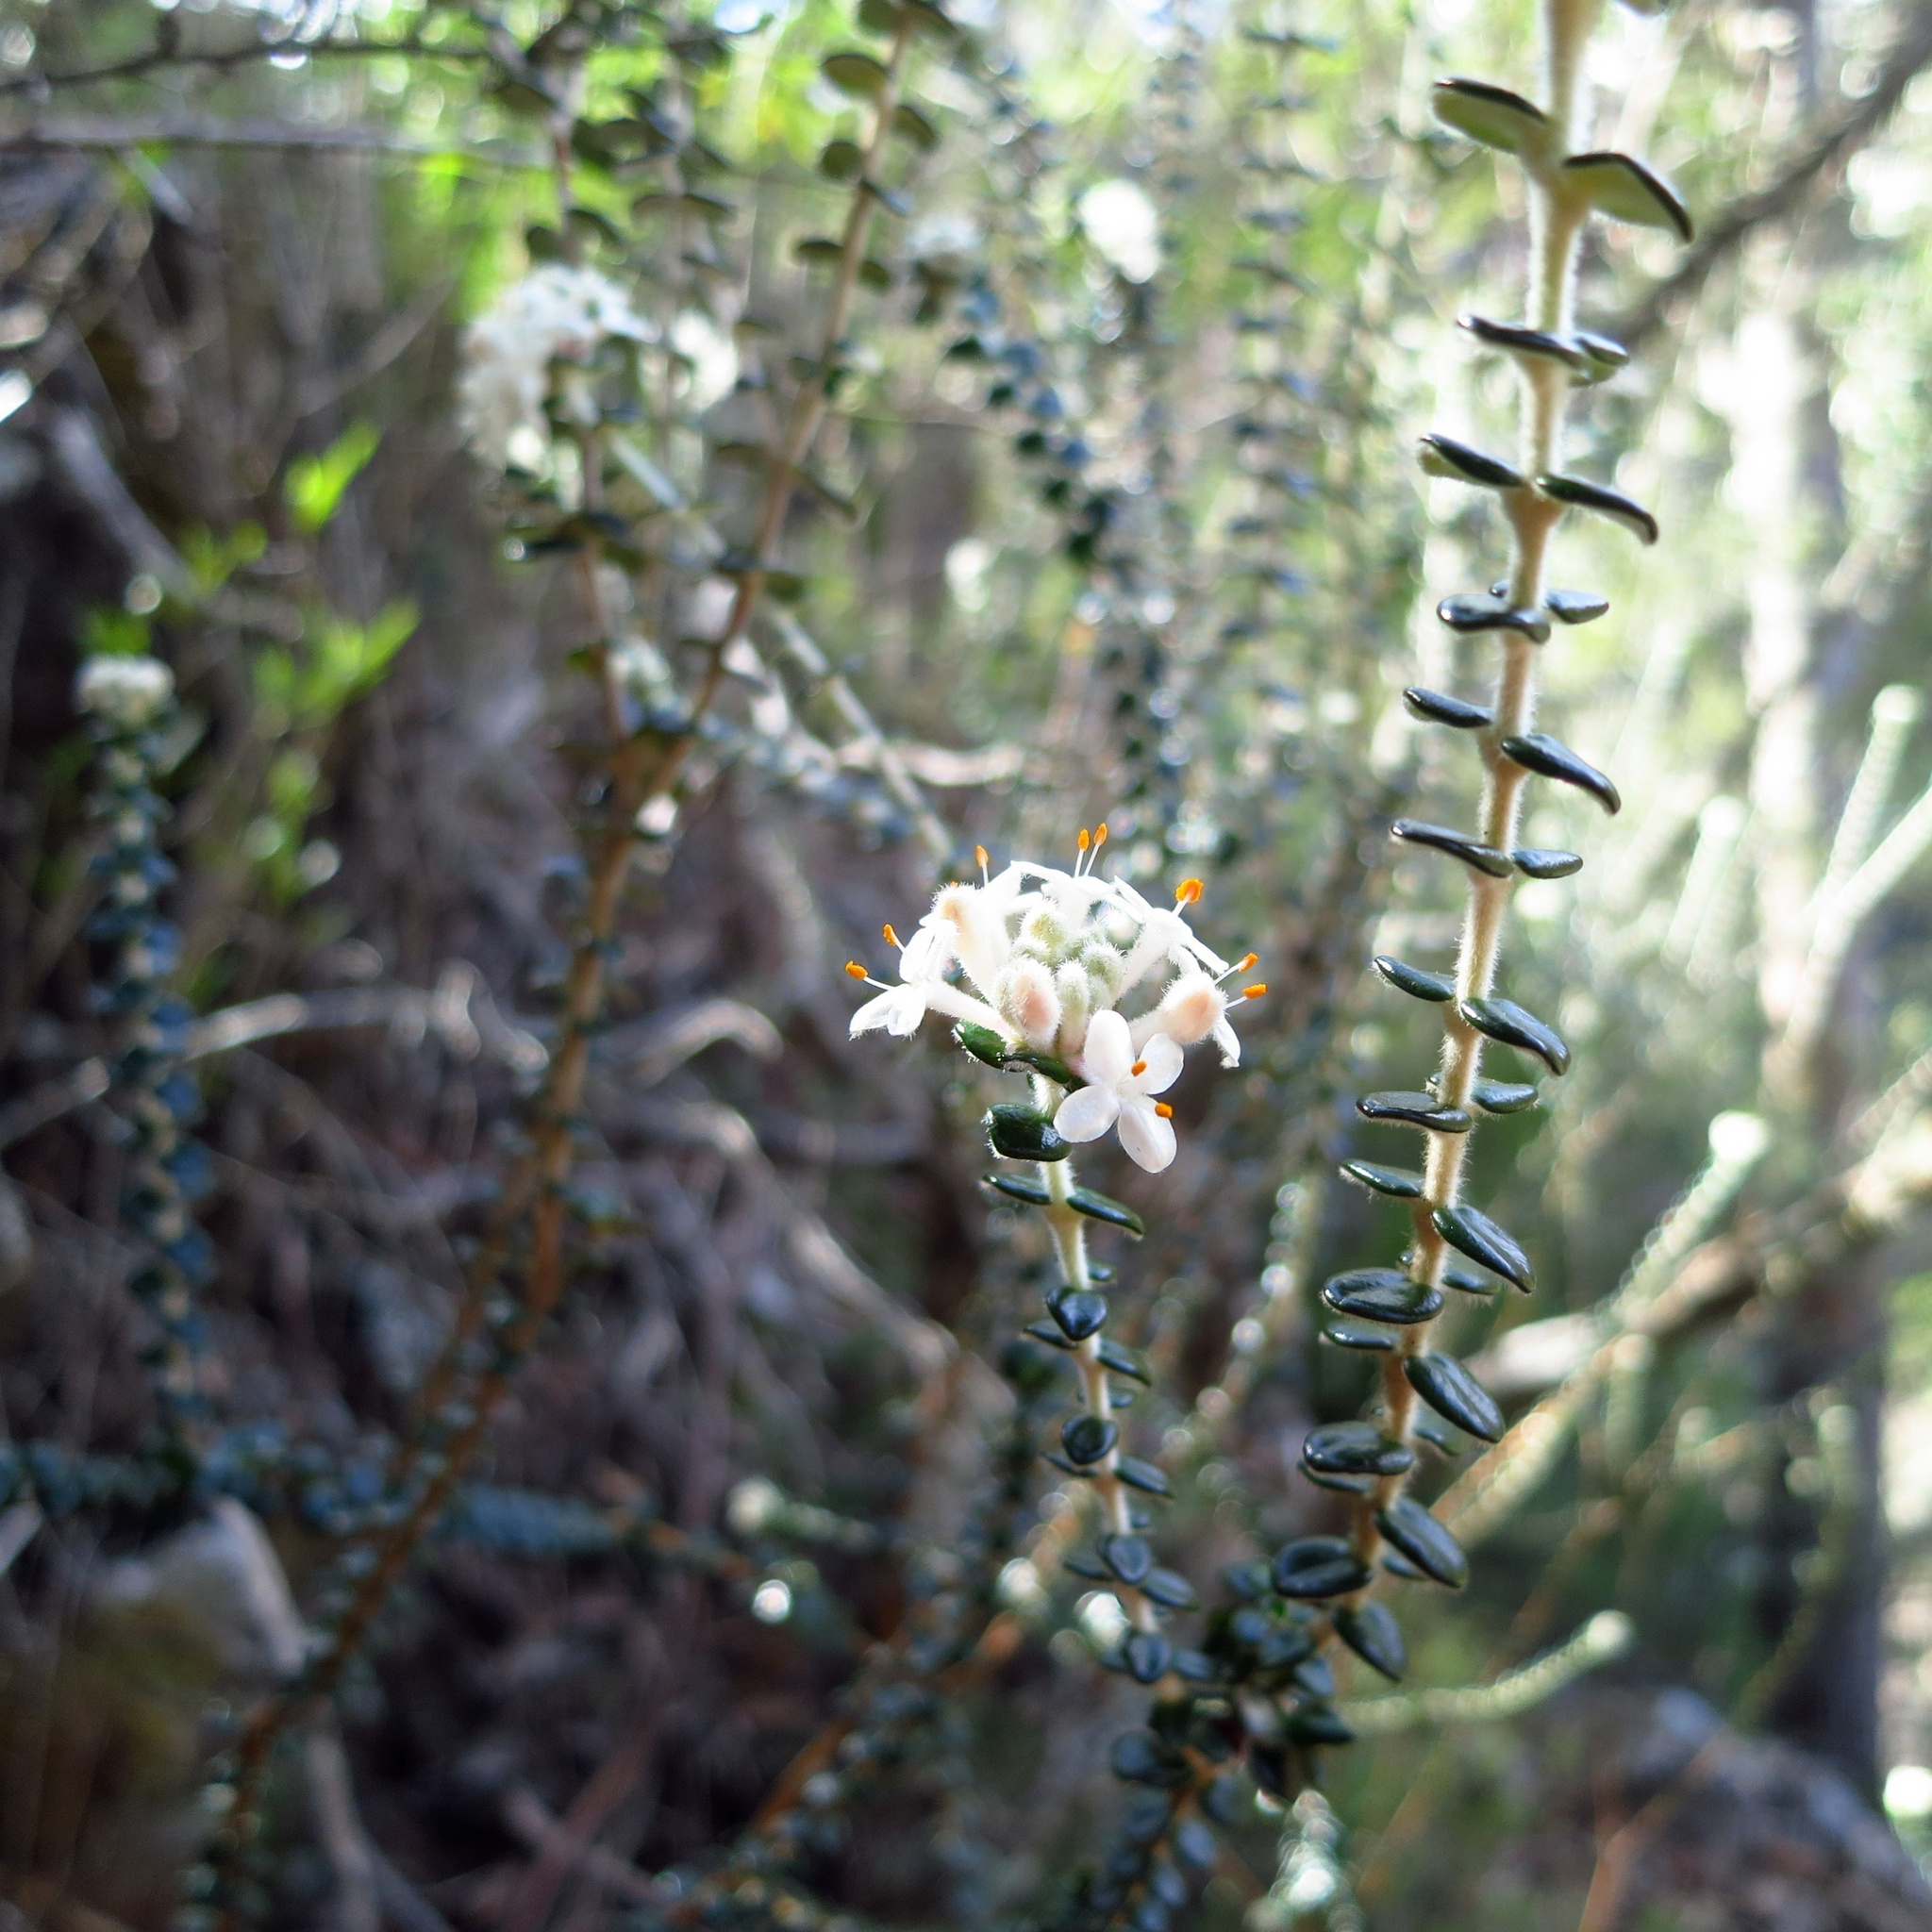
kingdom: Plantae
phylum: Tracheophyta
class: Magnoliopsida
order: Malvales
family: Thymelaeaceae
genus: Pimelea
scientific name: Pimelea nivea
